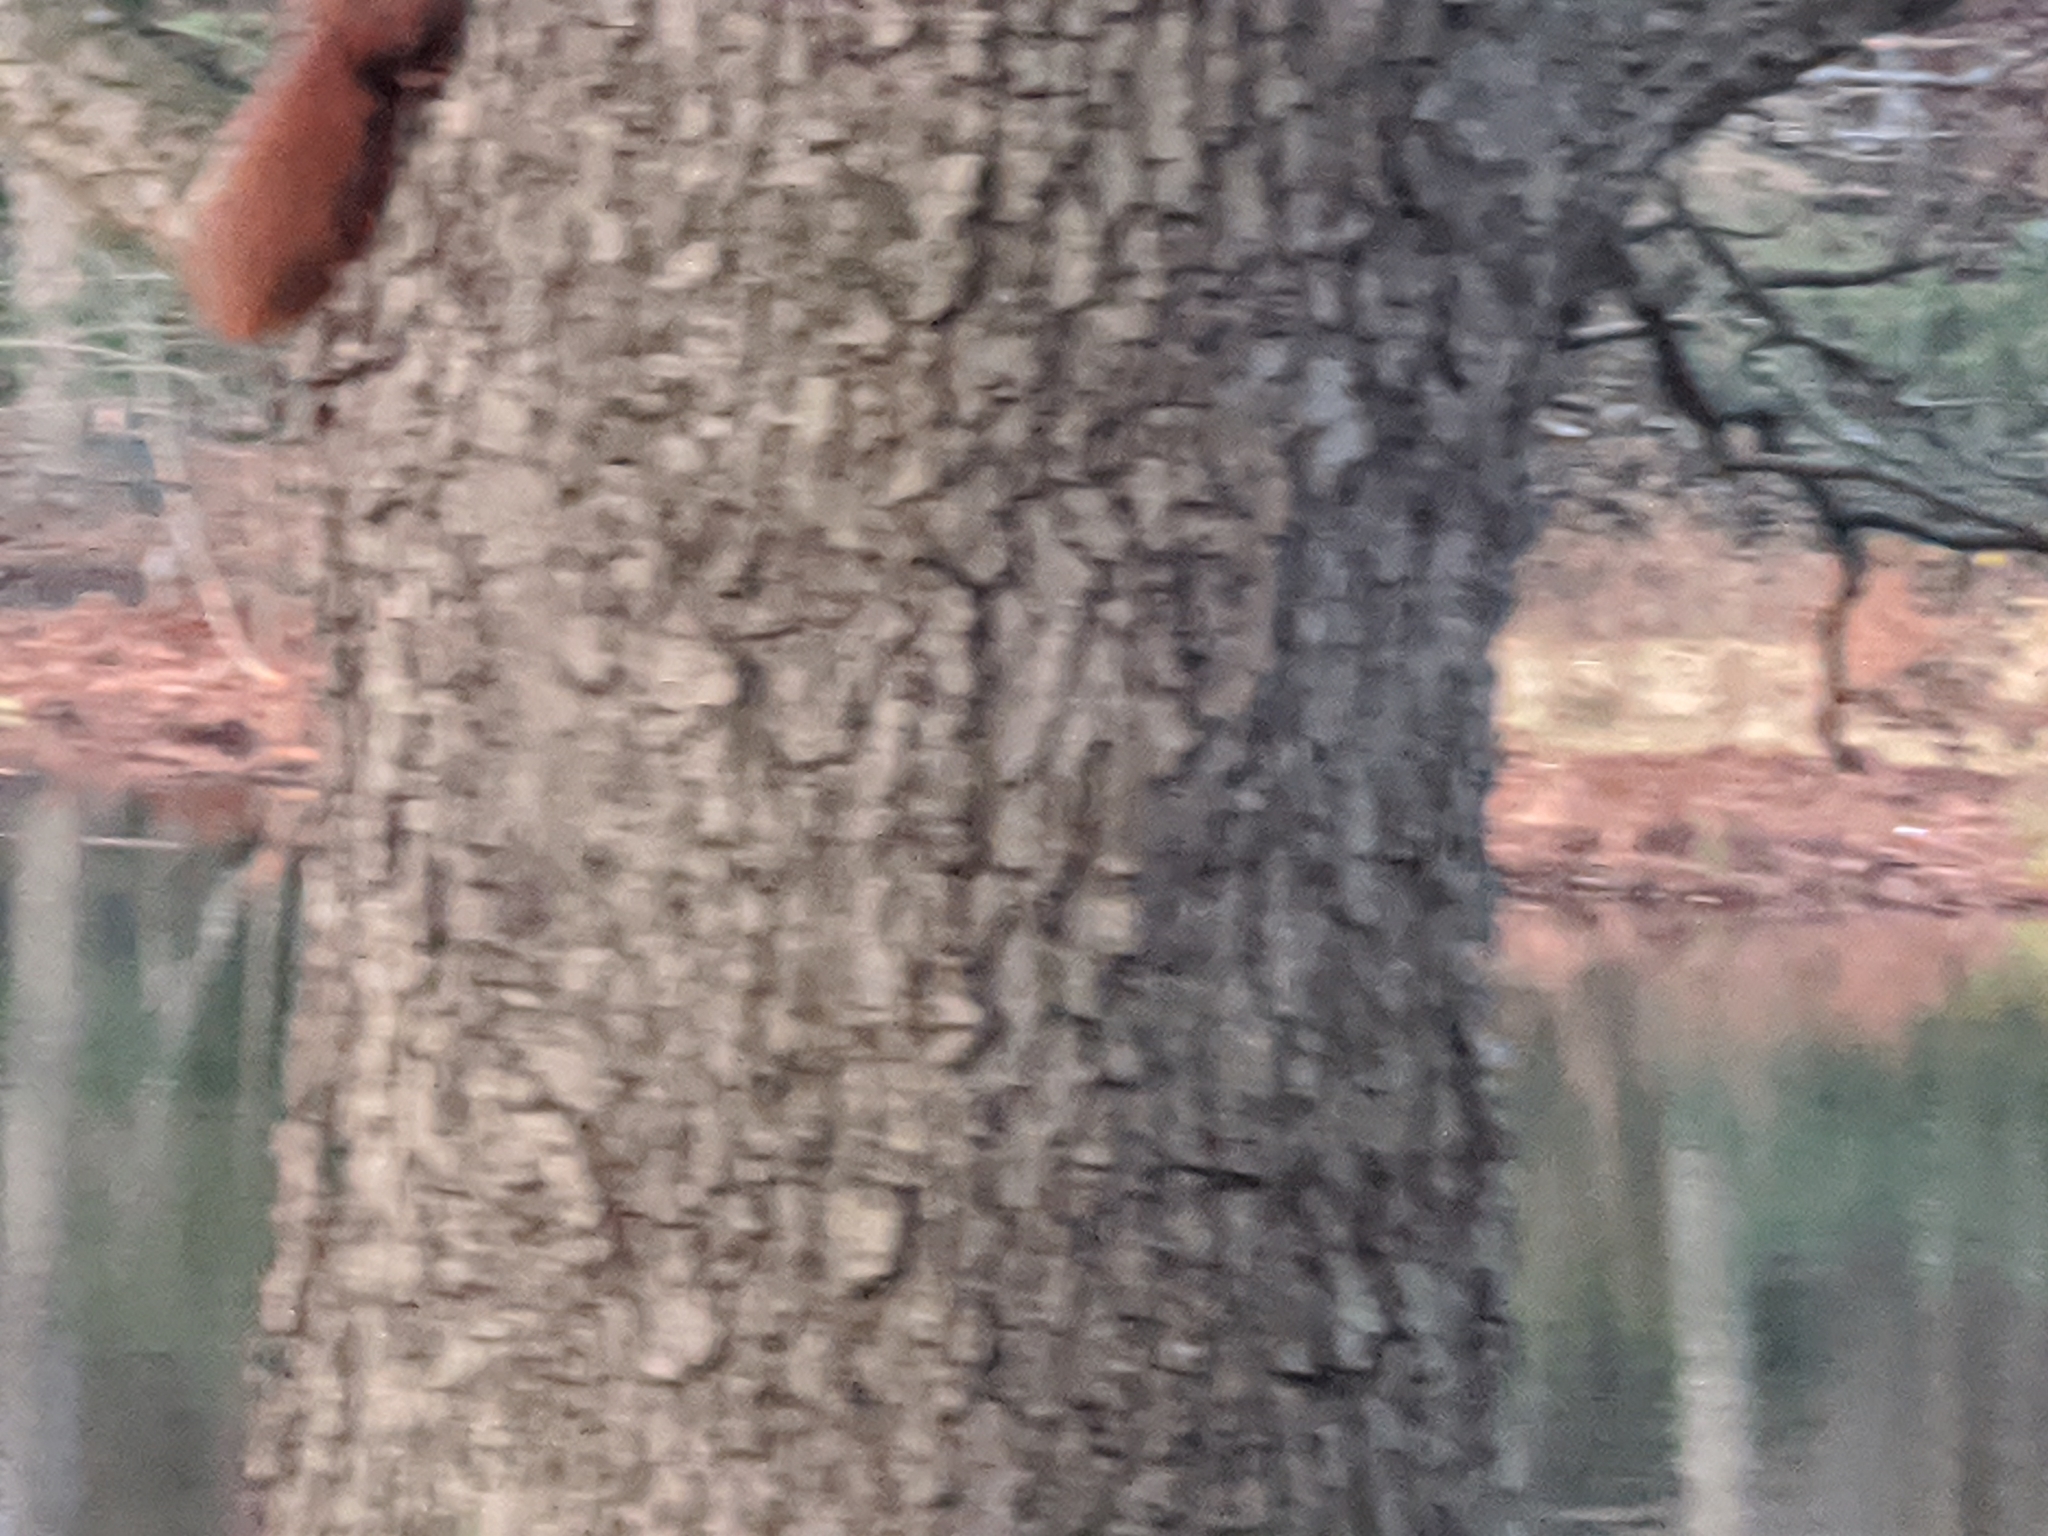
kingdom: Animalia
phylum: Chordata
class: Mammalia
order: Rodentia
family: Sciuridae
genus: Sciurus
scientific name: Sciurus vulgaris
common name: Eurasian red squirrel
